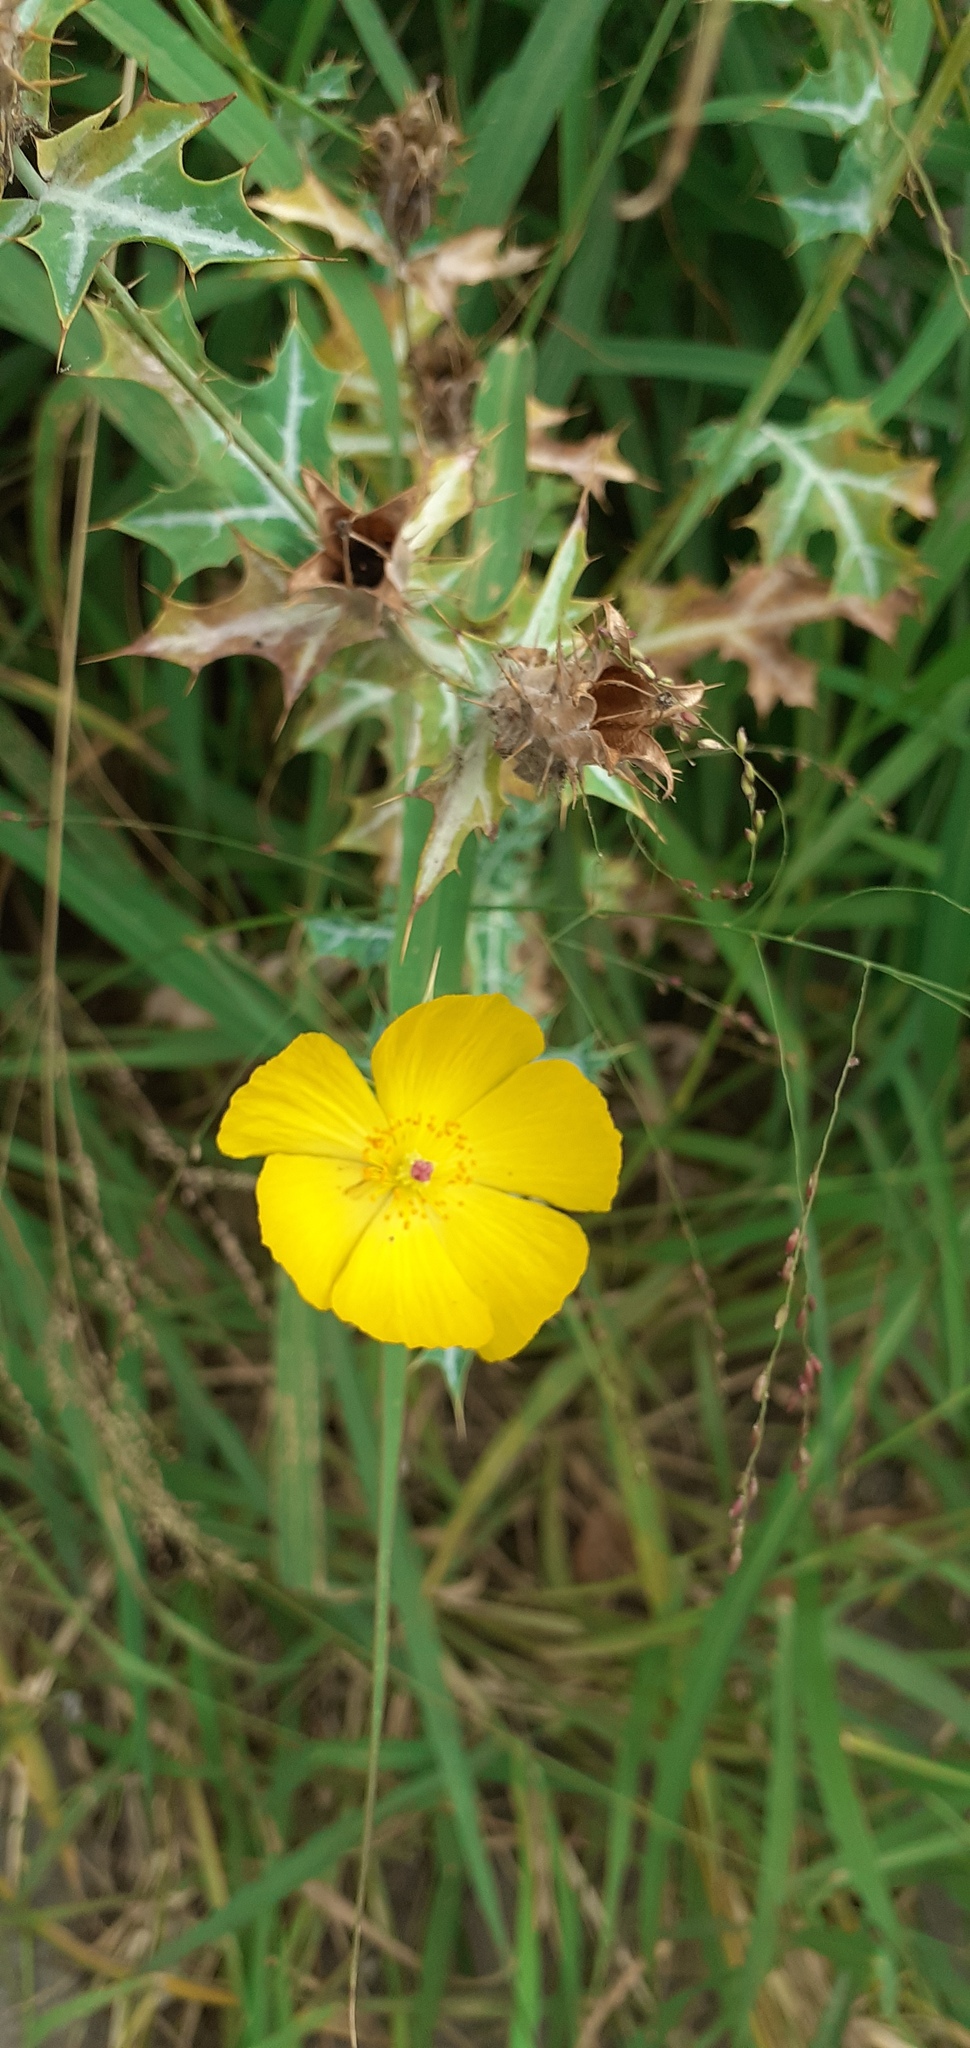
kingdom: Plantae
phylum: Tracheophyta
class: Magnoliopsida
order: Ranunculales
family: Papaveraceae
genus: Argemone
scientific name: Argemone mexicana
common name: Mexican poppy
